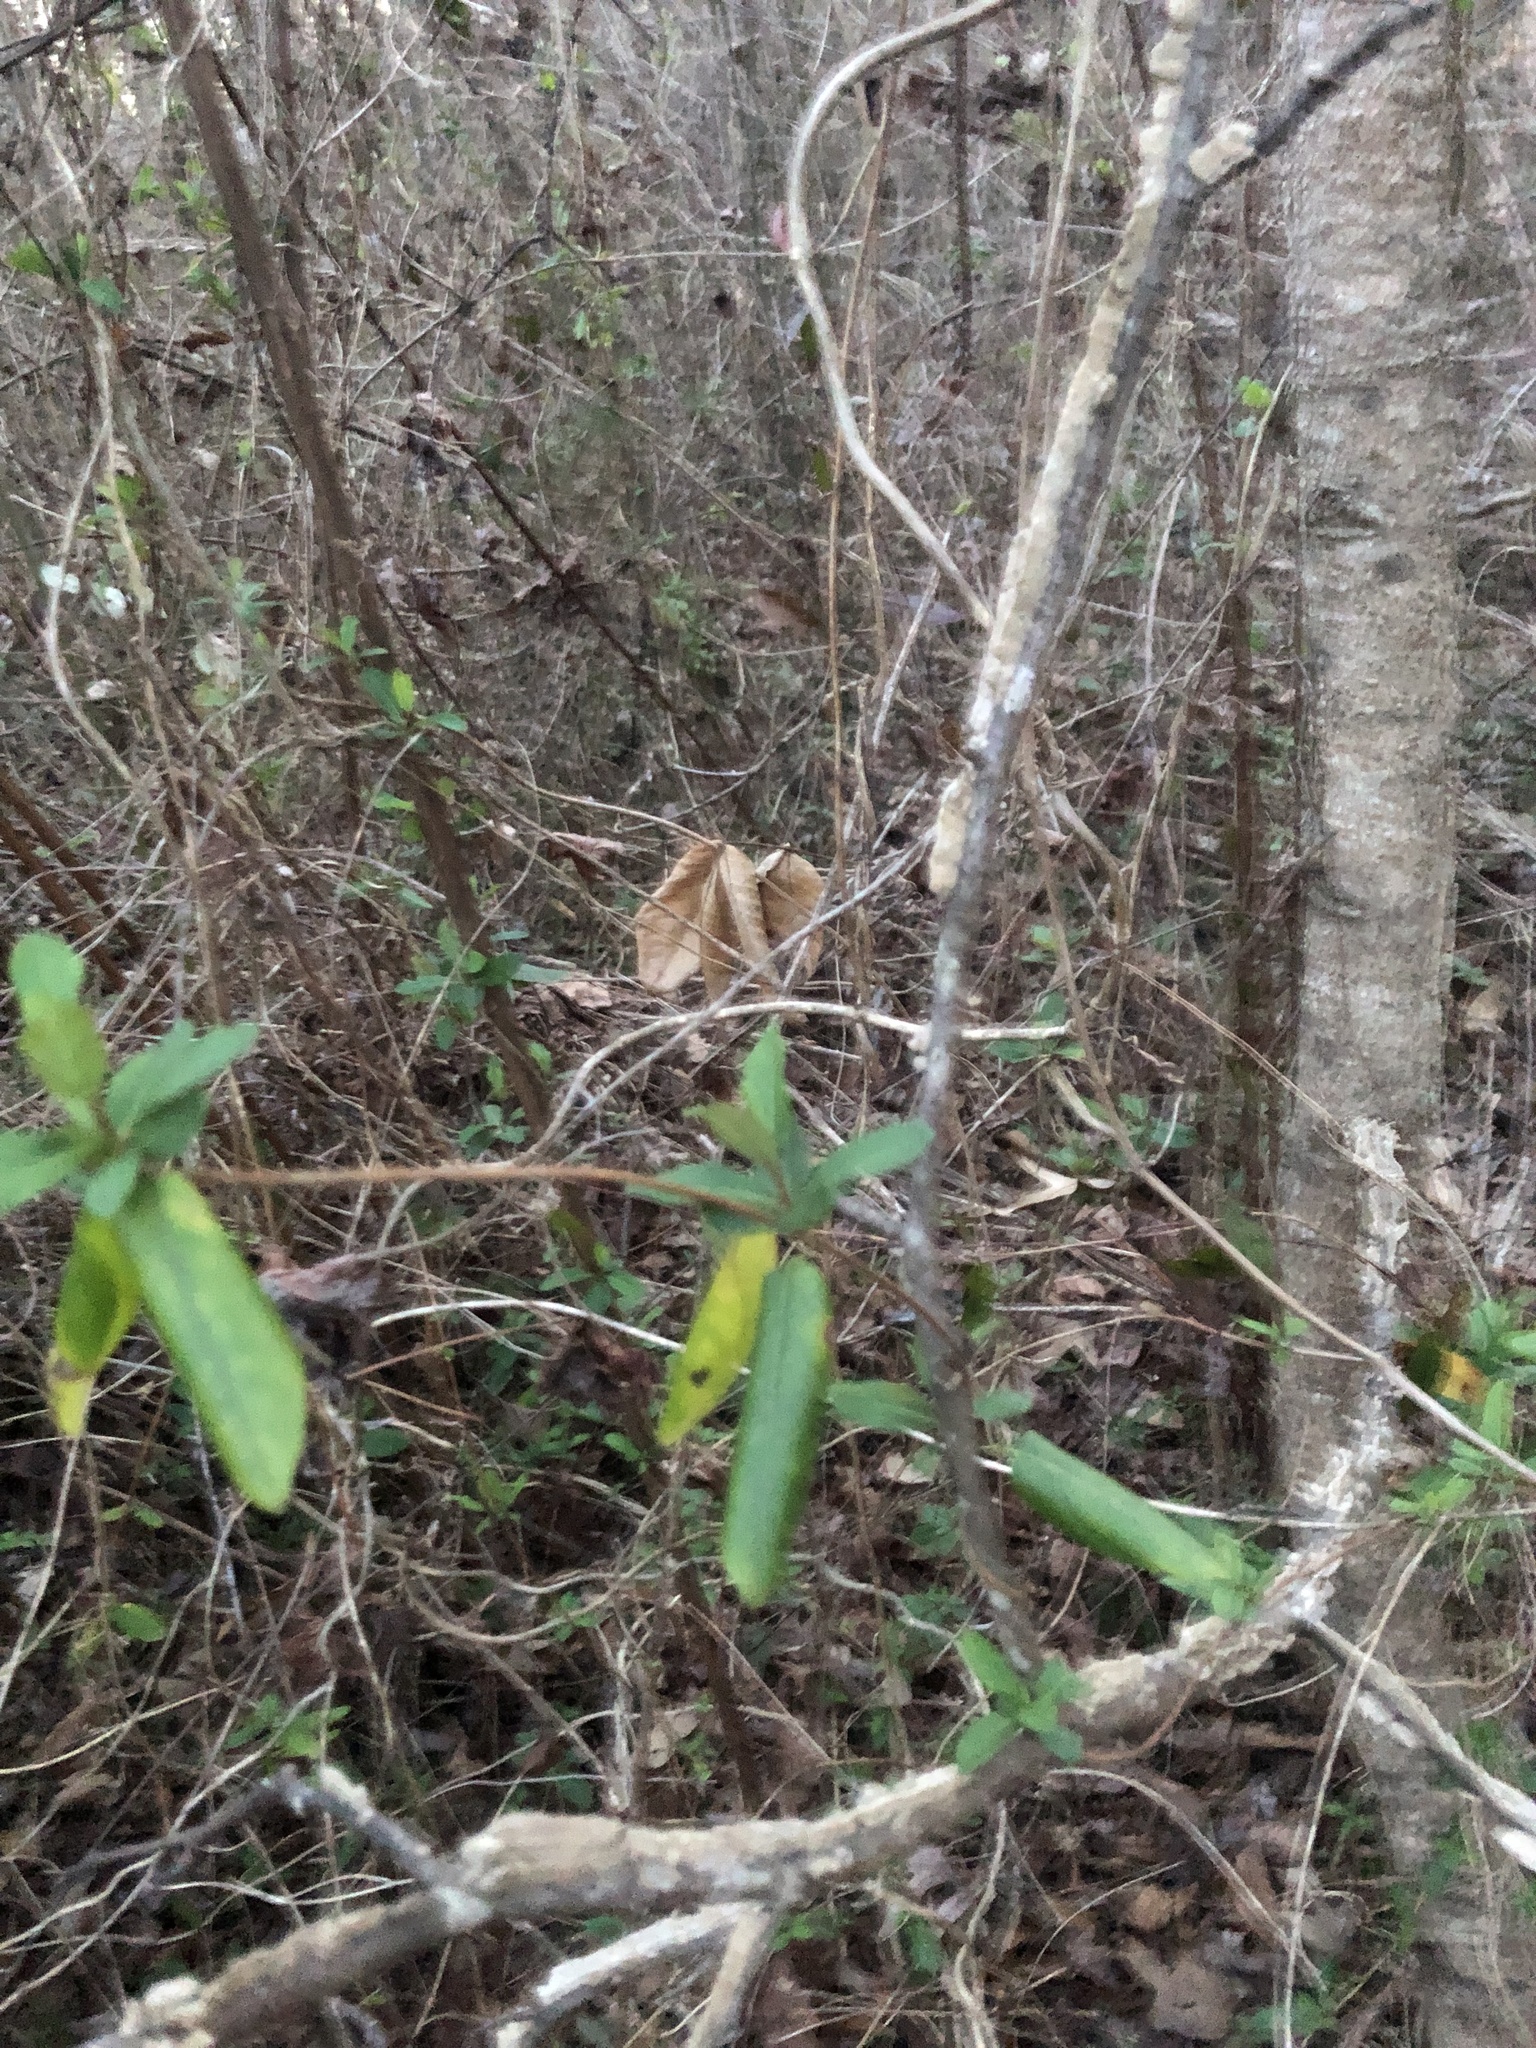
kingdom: Plantae
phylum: Tracheophyta
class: Magnoliopsida
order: Dipsacales
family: Caprifoliaceae
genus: Lonicera
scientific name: Lonicera japonica
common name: Japanese honeysuckle
